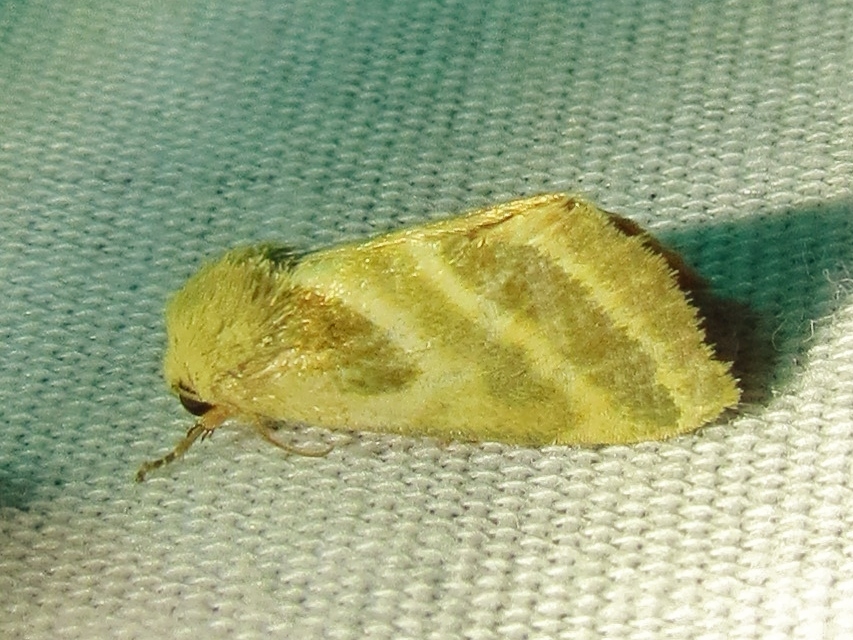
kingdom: Animalia
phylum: Arthropoda
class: Insecta
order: Lepidoptera
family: Noctuidae
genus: Schinia
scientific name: Schinia trifascia
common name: Three-lined flower moth
